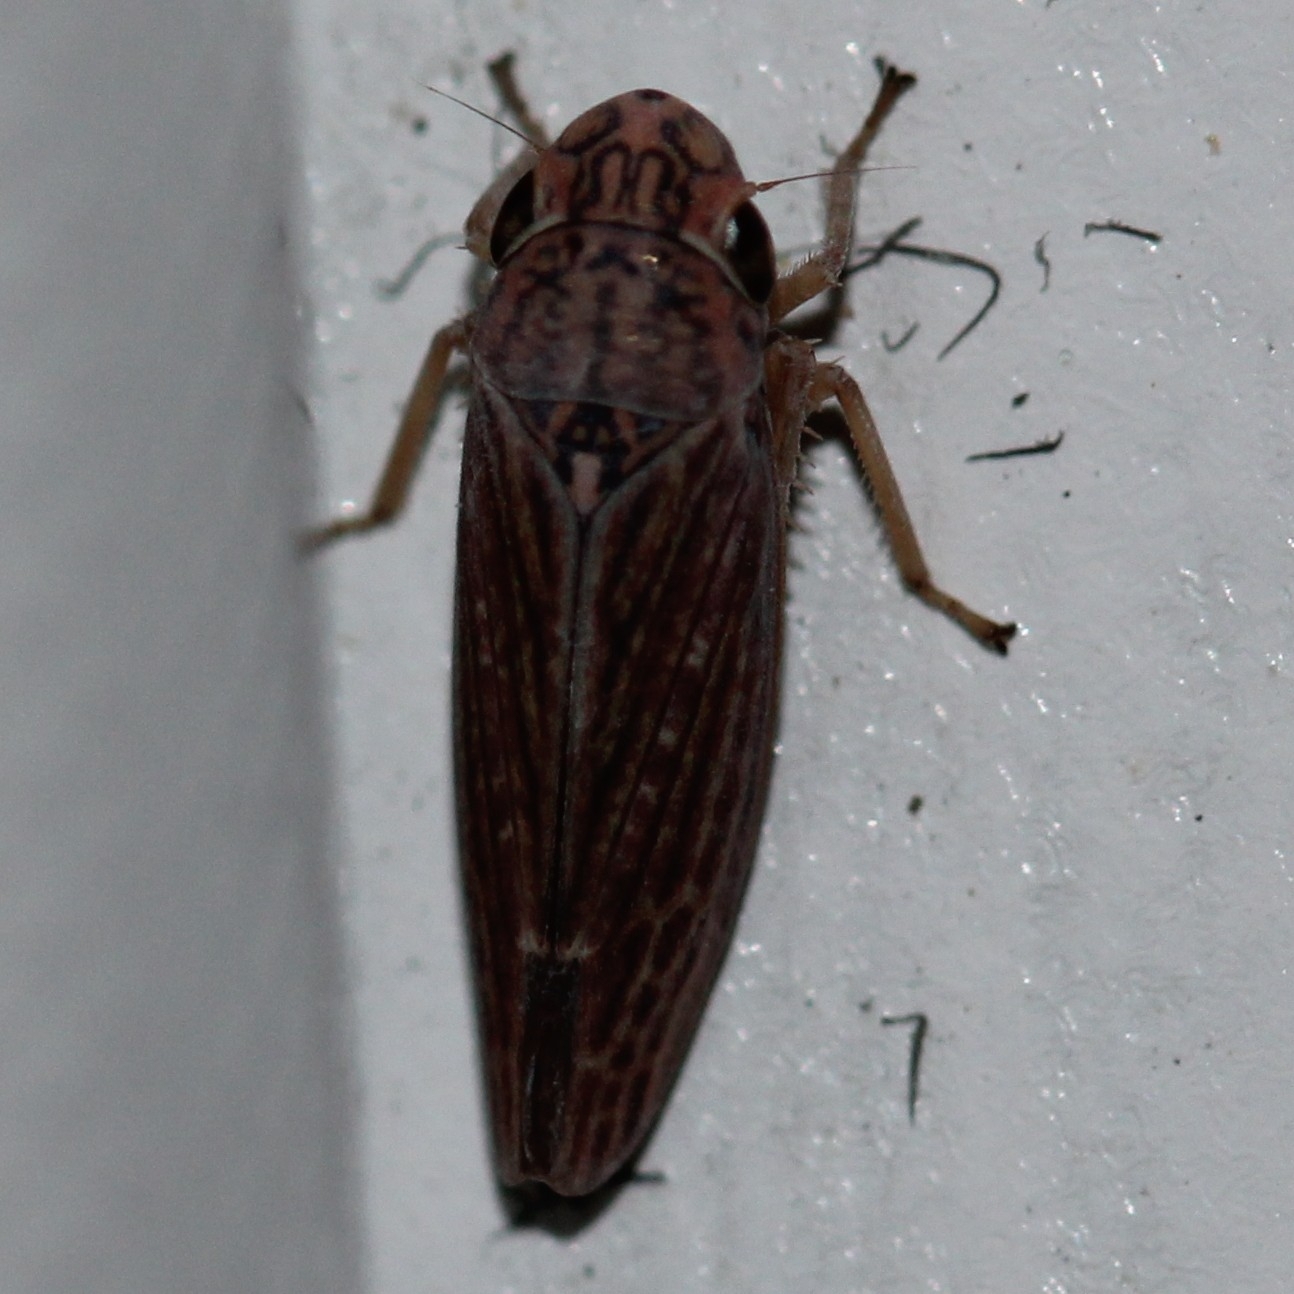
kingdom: Animalia
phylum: Arthropoda
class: Insecta
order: Hemiptera
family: Cicadellidae
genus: Neokolla
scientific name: Neokolla hieroglyphica
